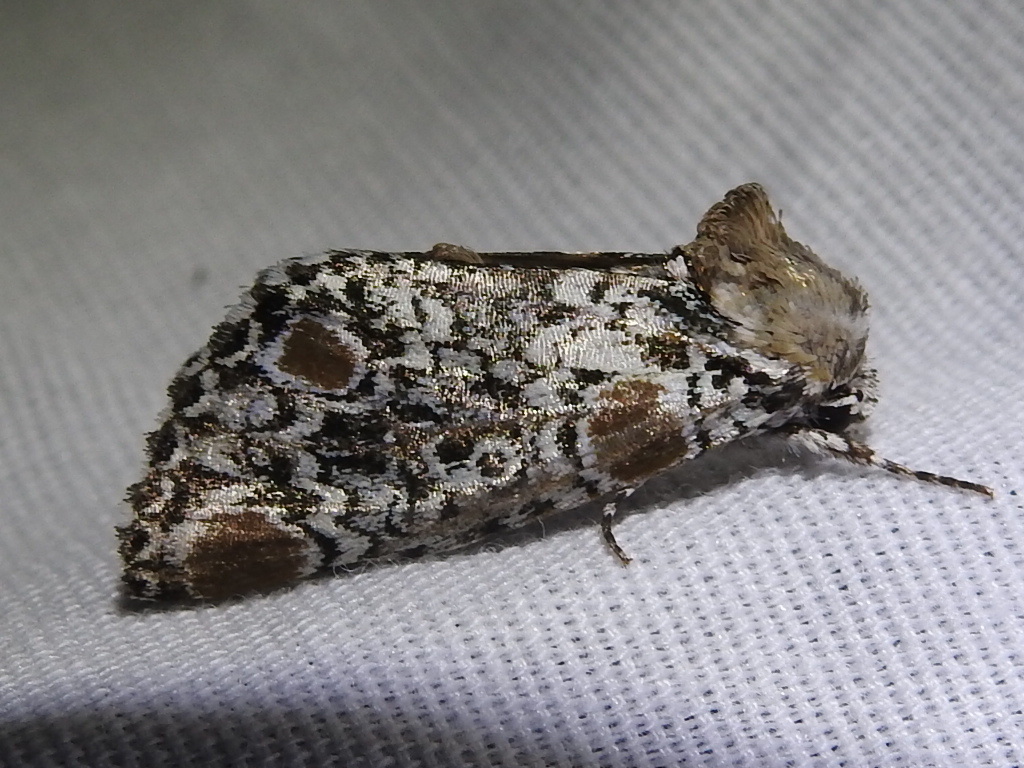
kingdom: Animalia
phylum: Arthropoda
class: Insecta
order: Lepidoptera
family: Noctuidae
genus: Harrisimemna
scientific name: Harrisimemna trisignata
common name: Harris threespot
